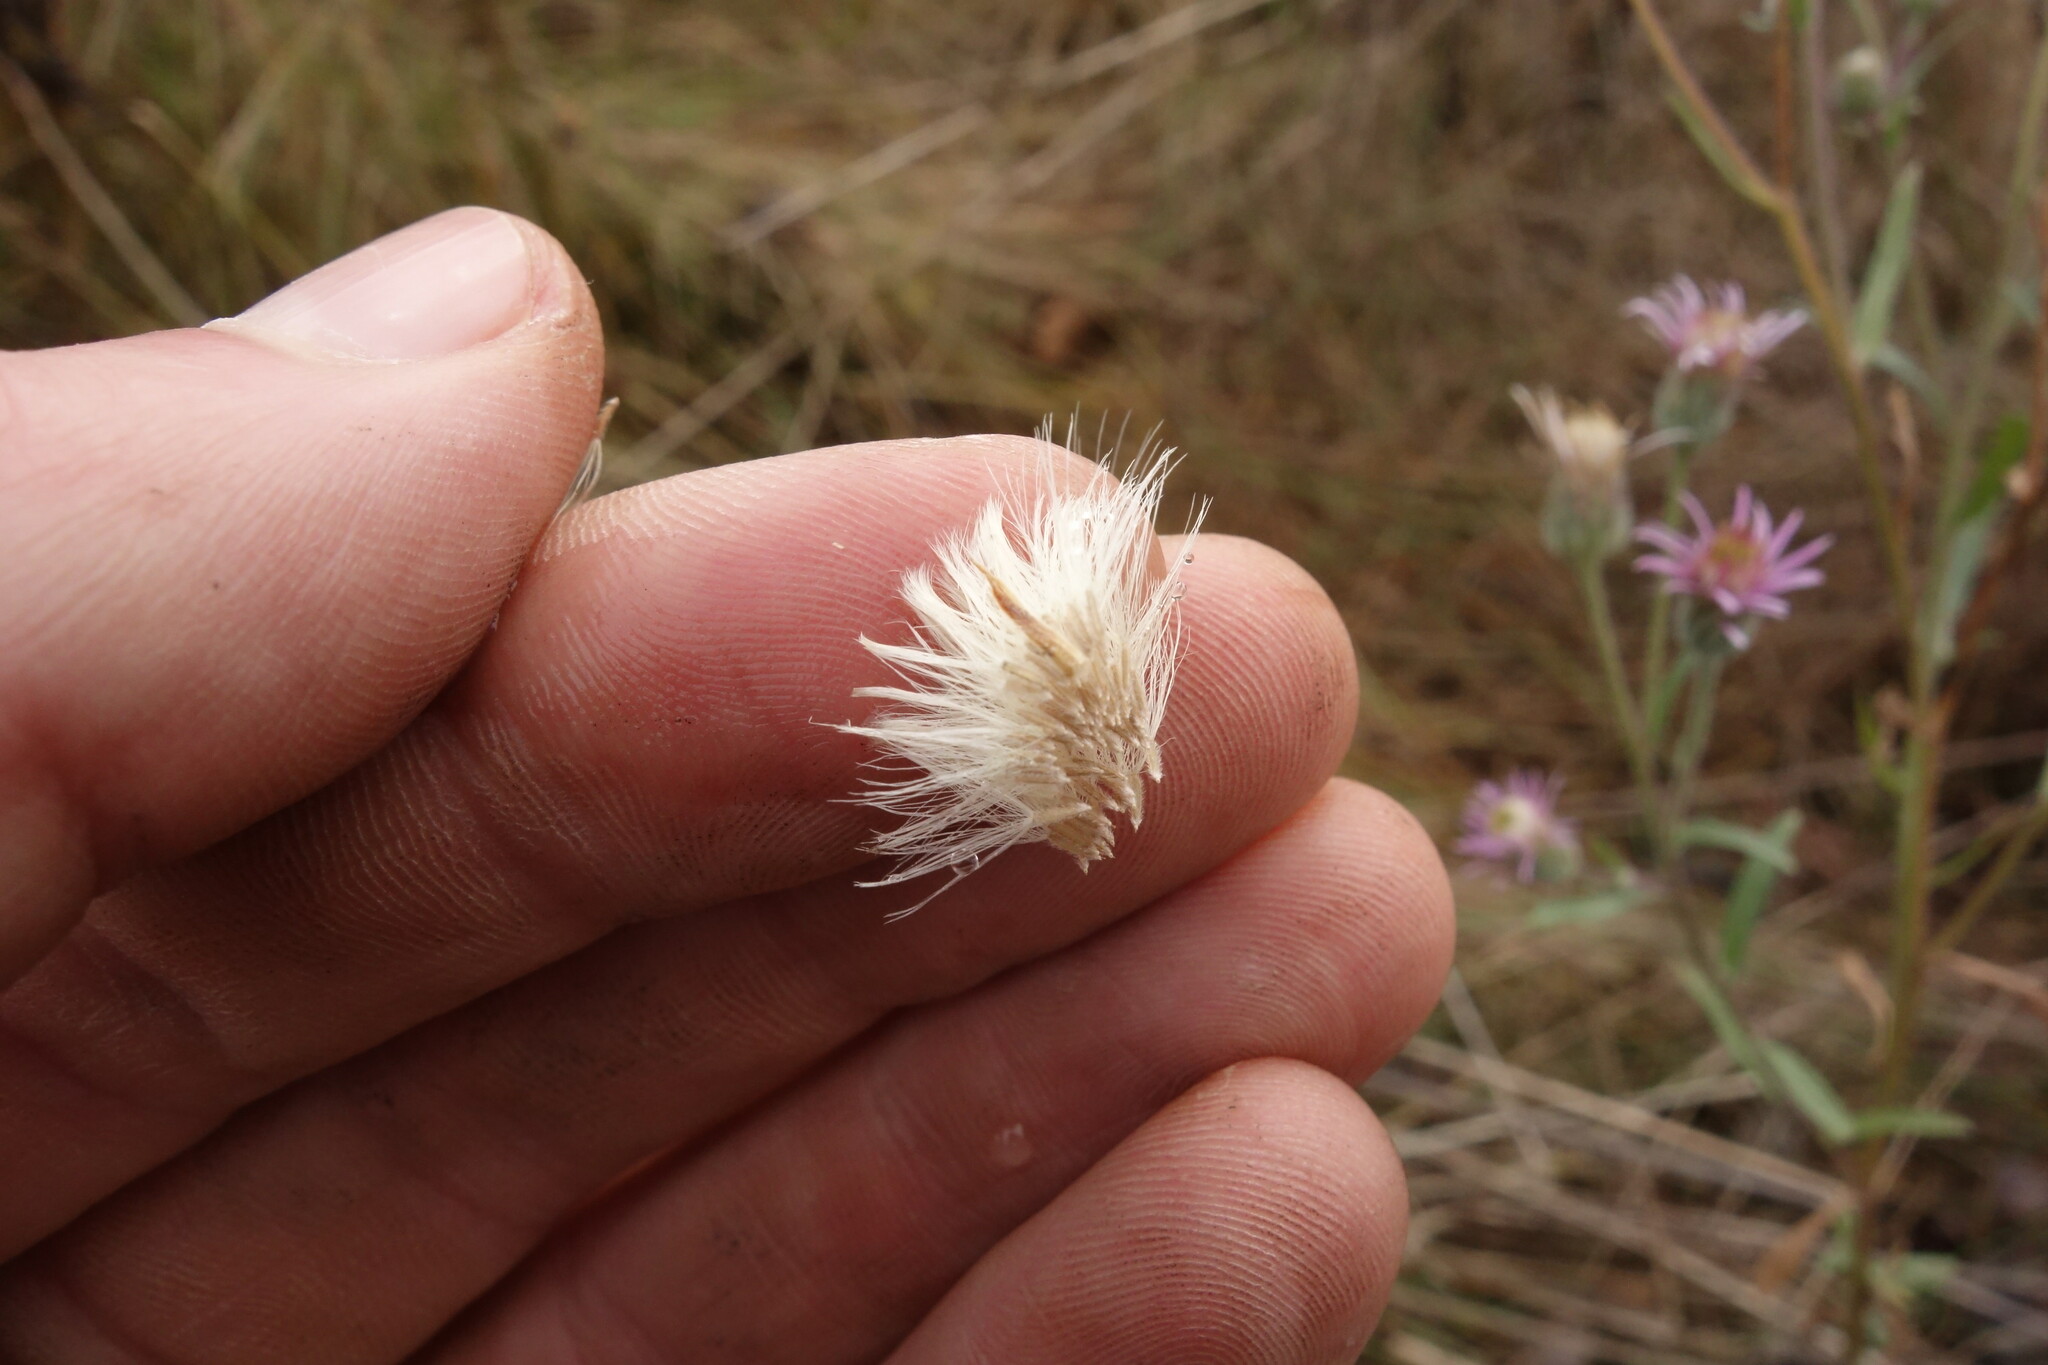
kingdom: Plantae
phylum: Tracheophyta
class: Magnoliopsida
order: Asterales
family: Asteraceae
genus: Erigeron
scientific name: Erigeron acris
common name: Blue fleabane
